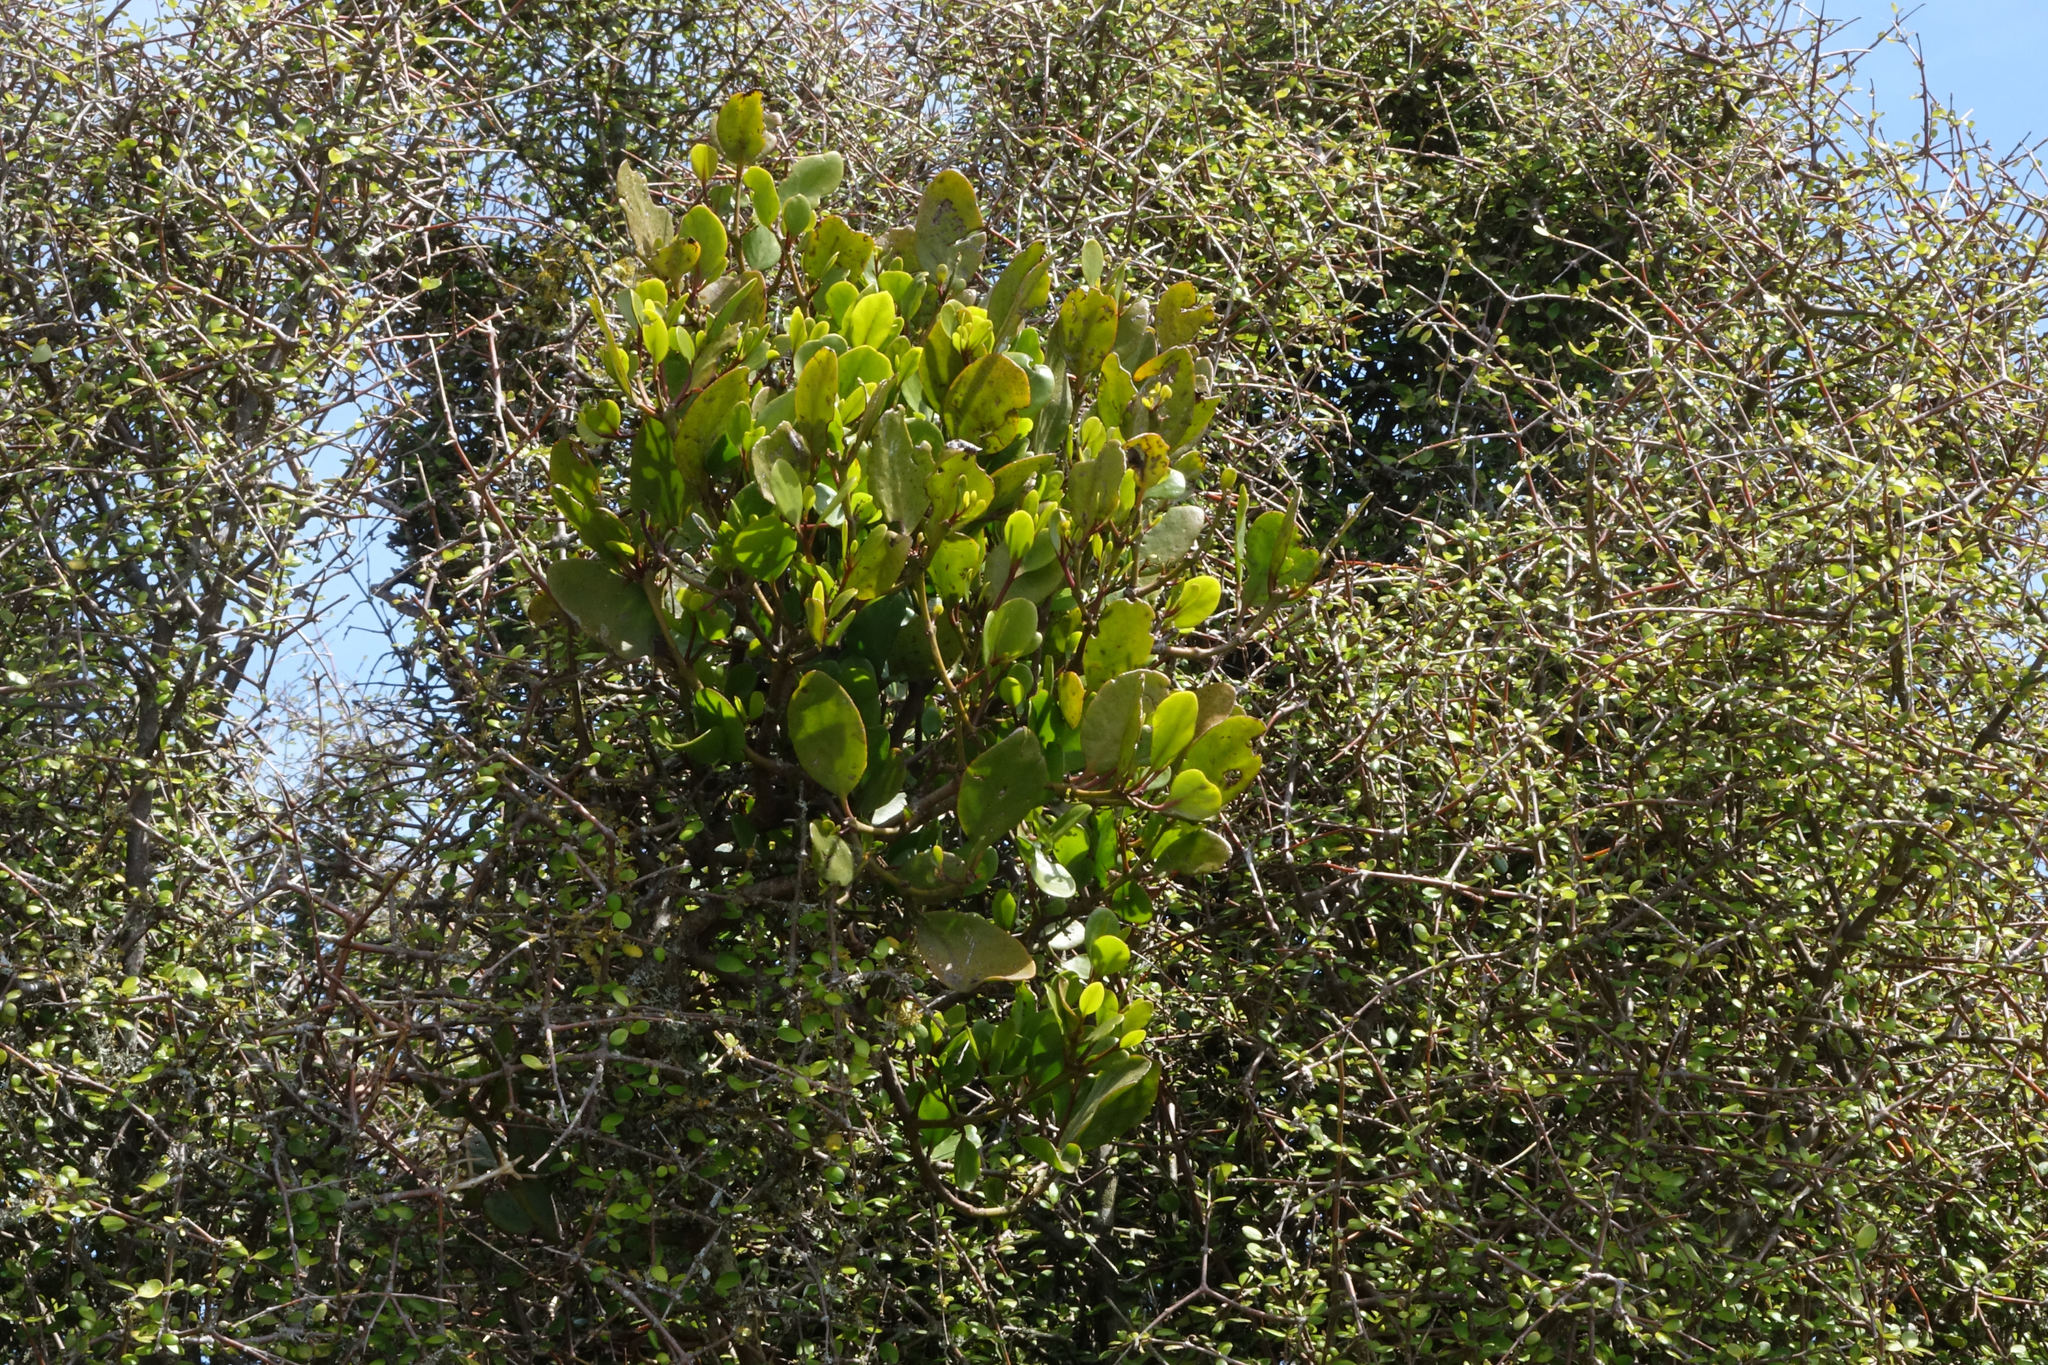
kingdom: Plantae
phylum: Tracheophyta
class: Magnoliopsida
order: Santalales
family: Loranthaceae
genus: Ileostylus
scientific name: Ileostylus micranthus
